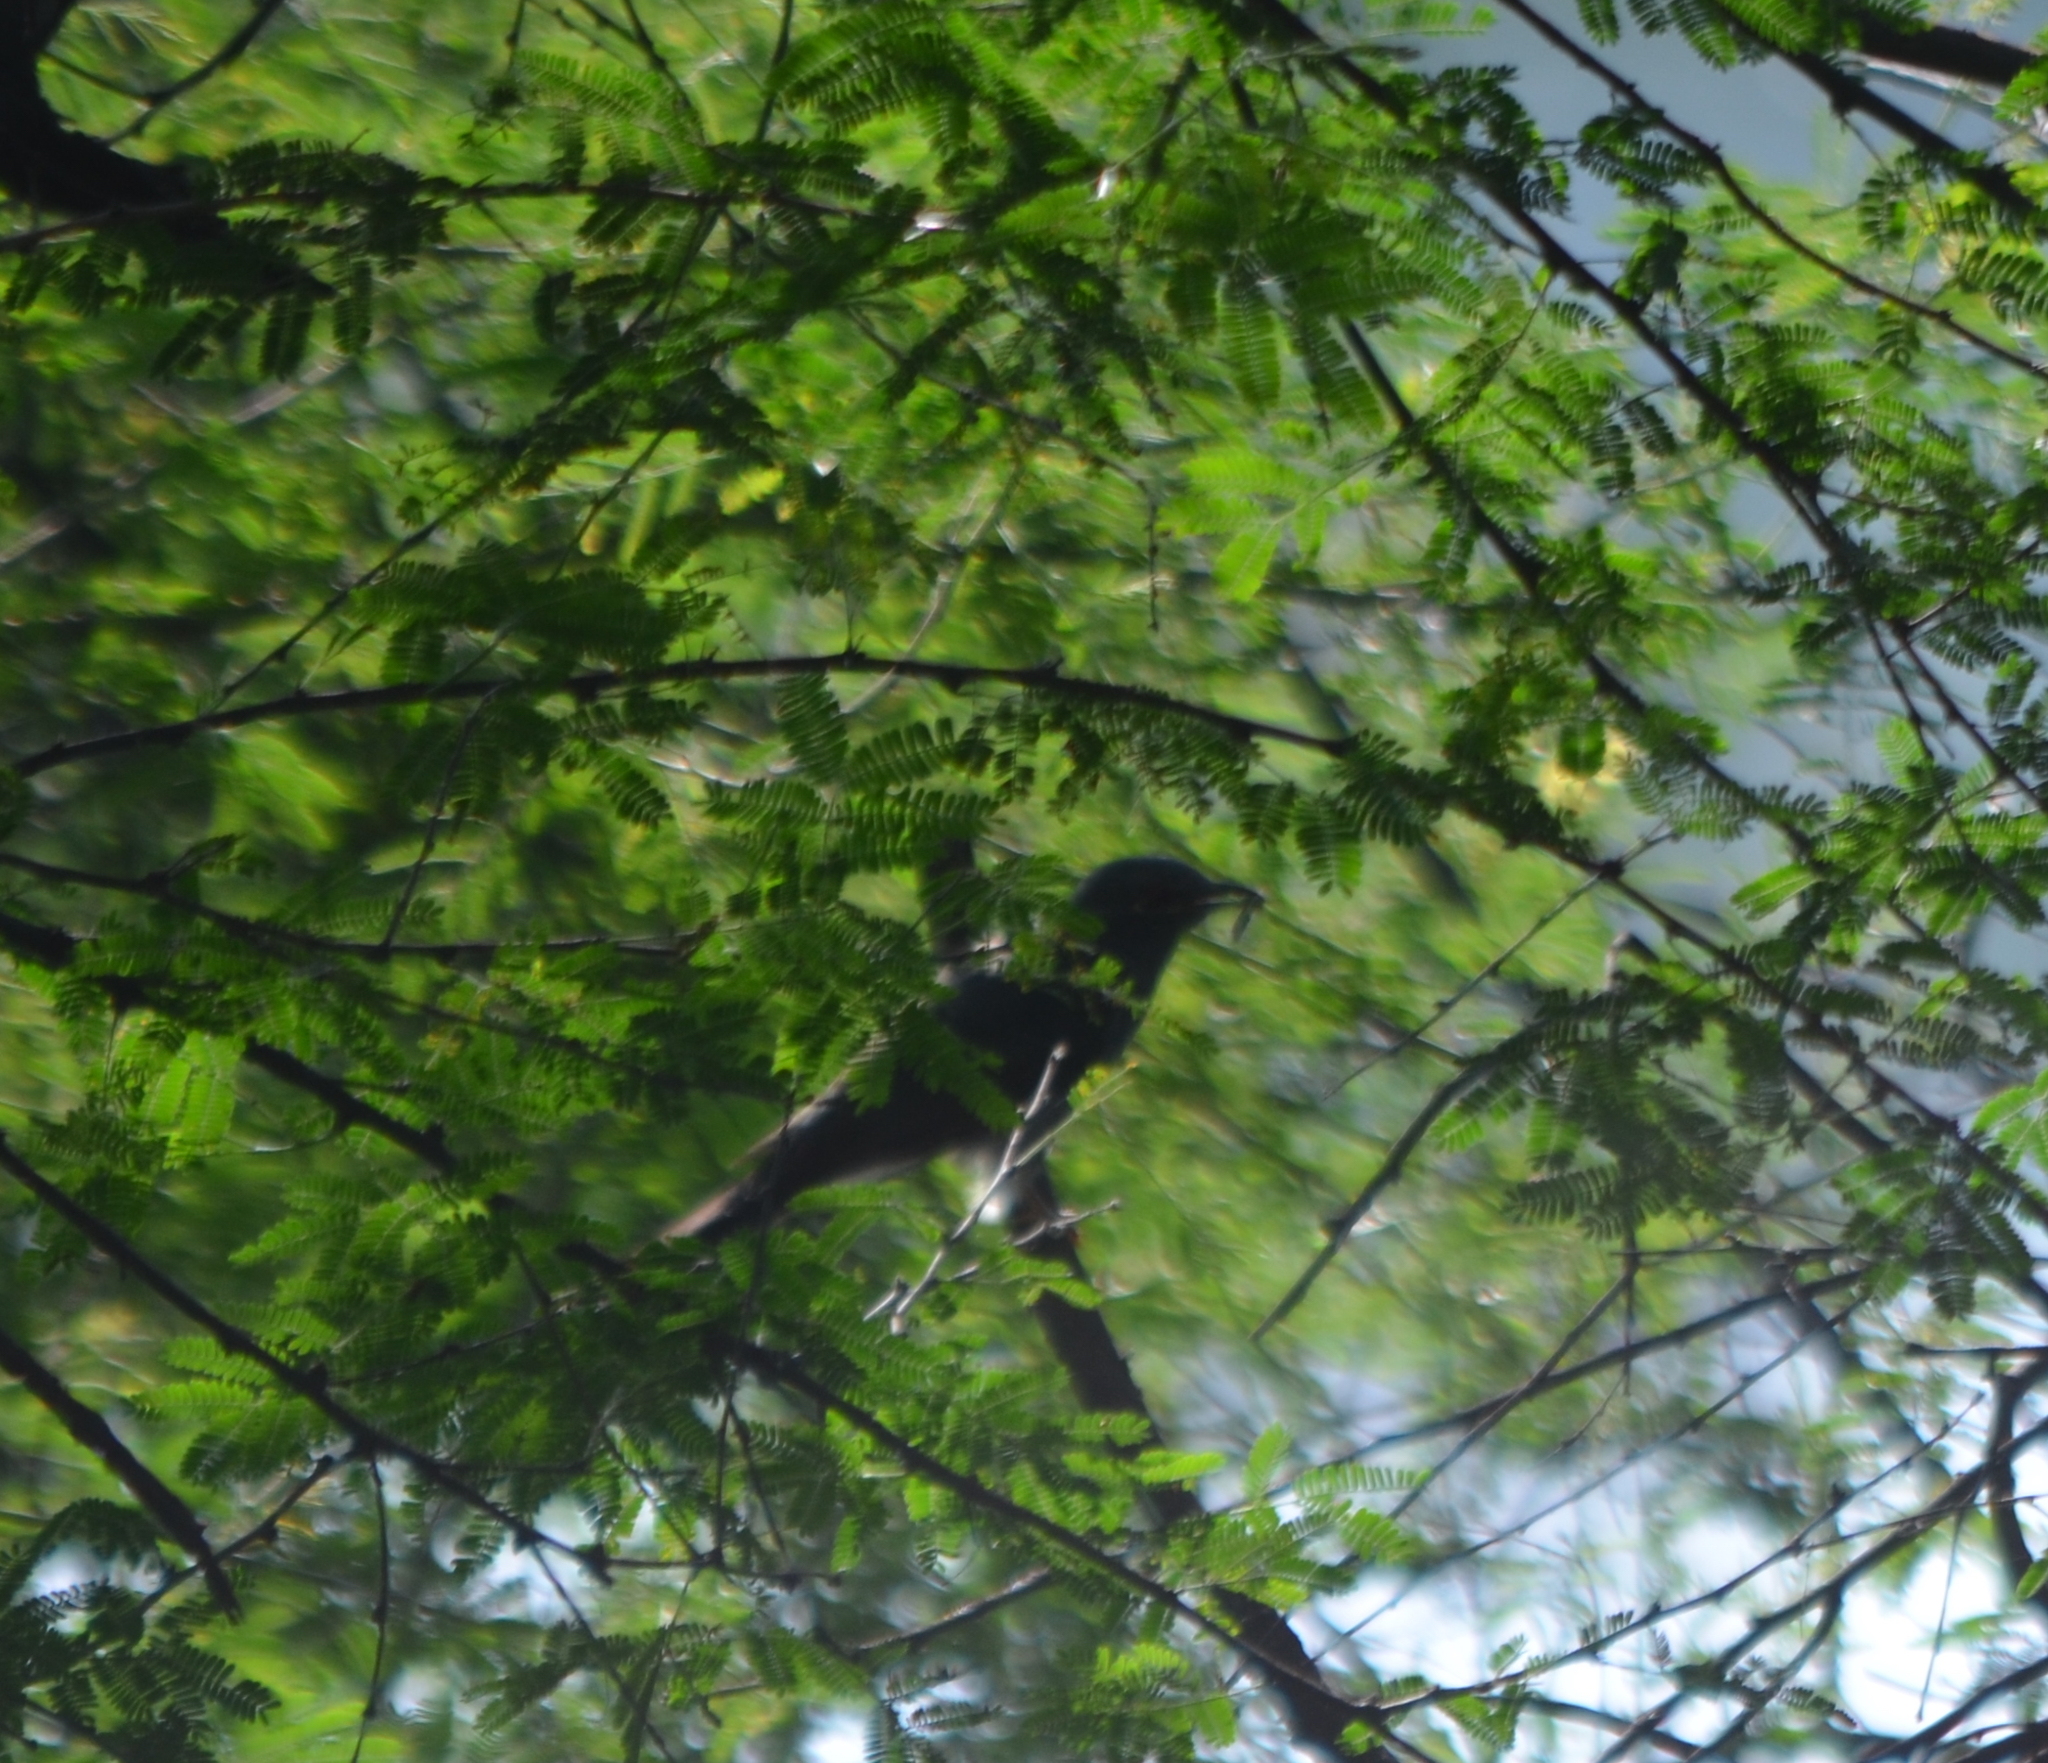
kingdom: Animalia
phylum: Chordata
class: Aves
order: Cuculiformes
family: Cuculidae
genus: Eudynamys
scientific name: Eudynamys scolopaceus
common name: Asian koel
